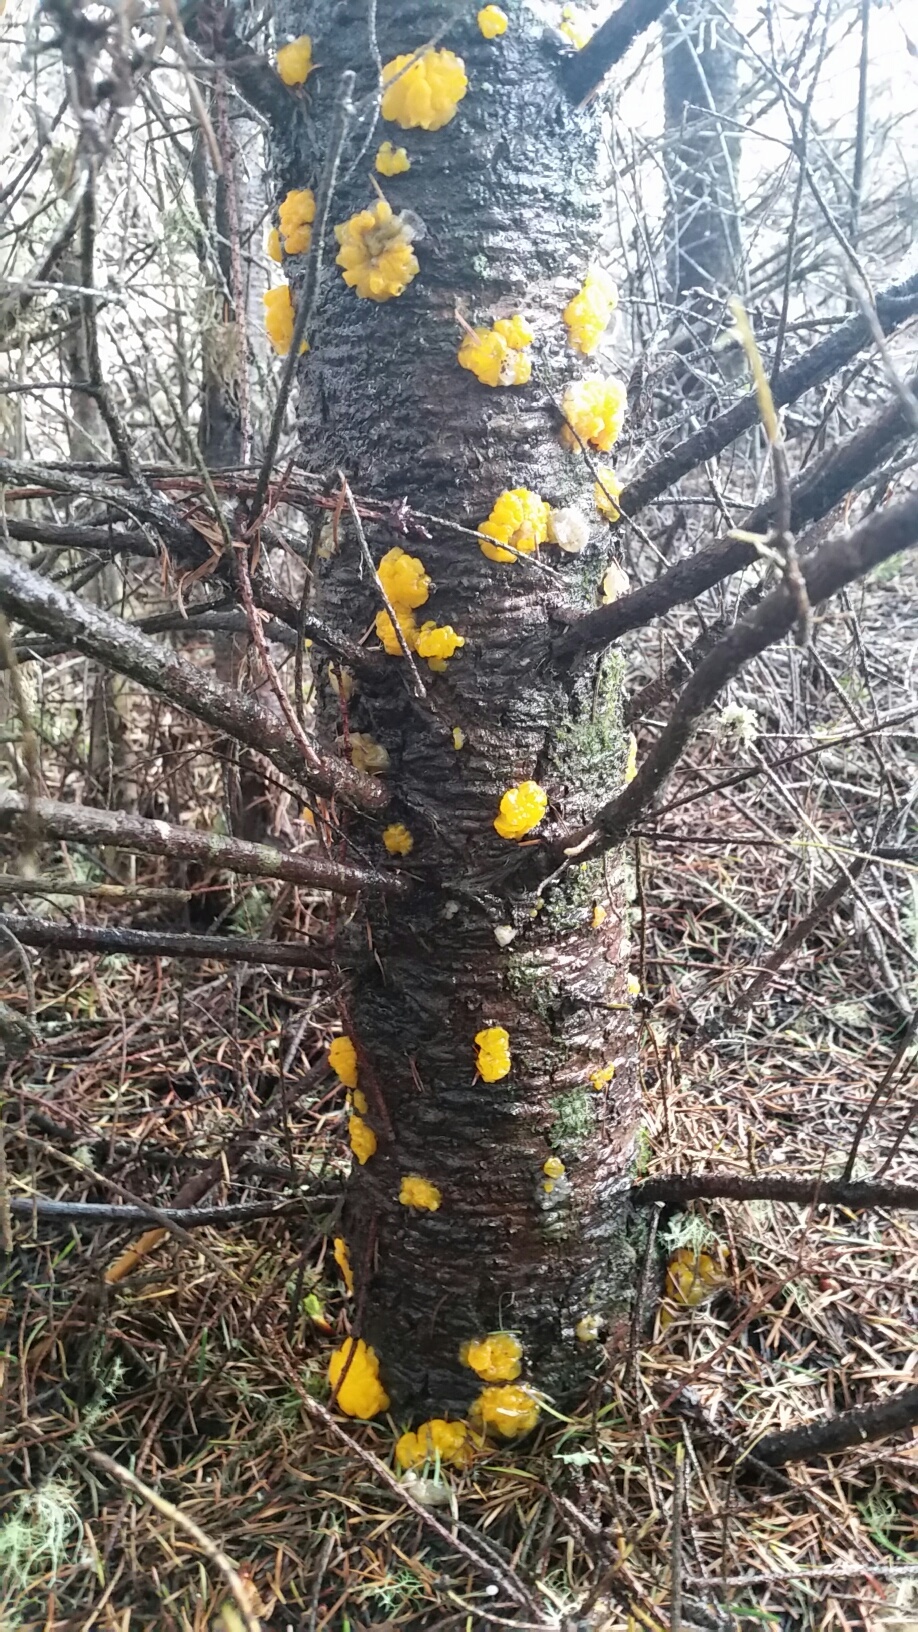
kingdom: Fungi
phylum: Basidiomycota
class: Dacrymycetes
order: Dacrymycetales
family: Dacrymycetaceae
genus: Dacrymyces
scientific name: Dacrymyces chrysospermus
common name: Orange jelly spot
